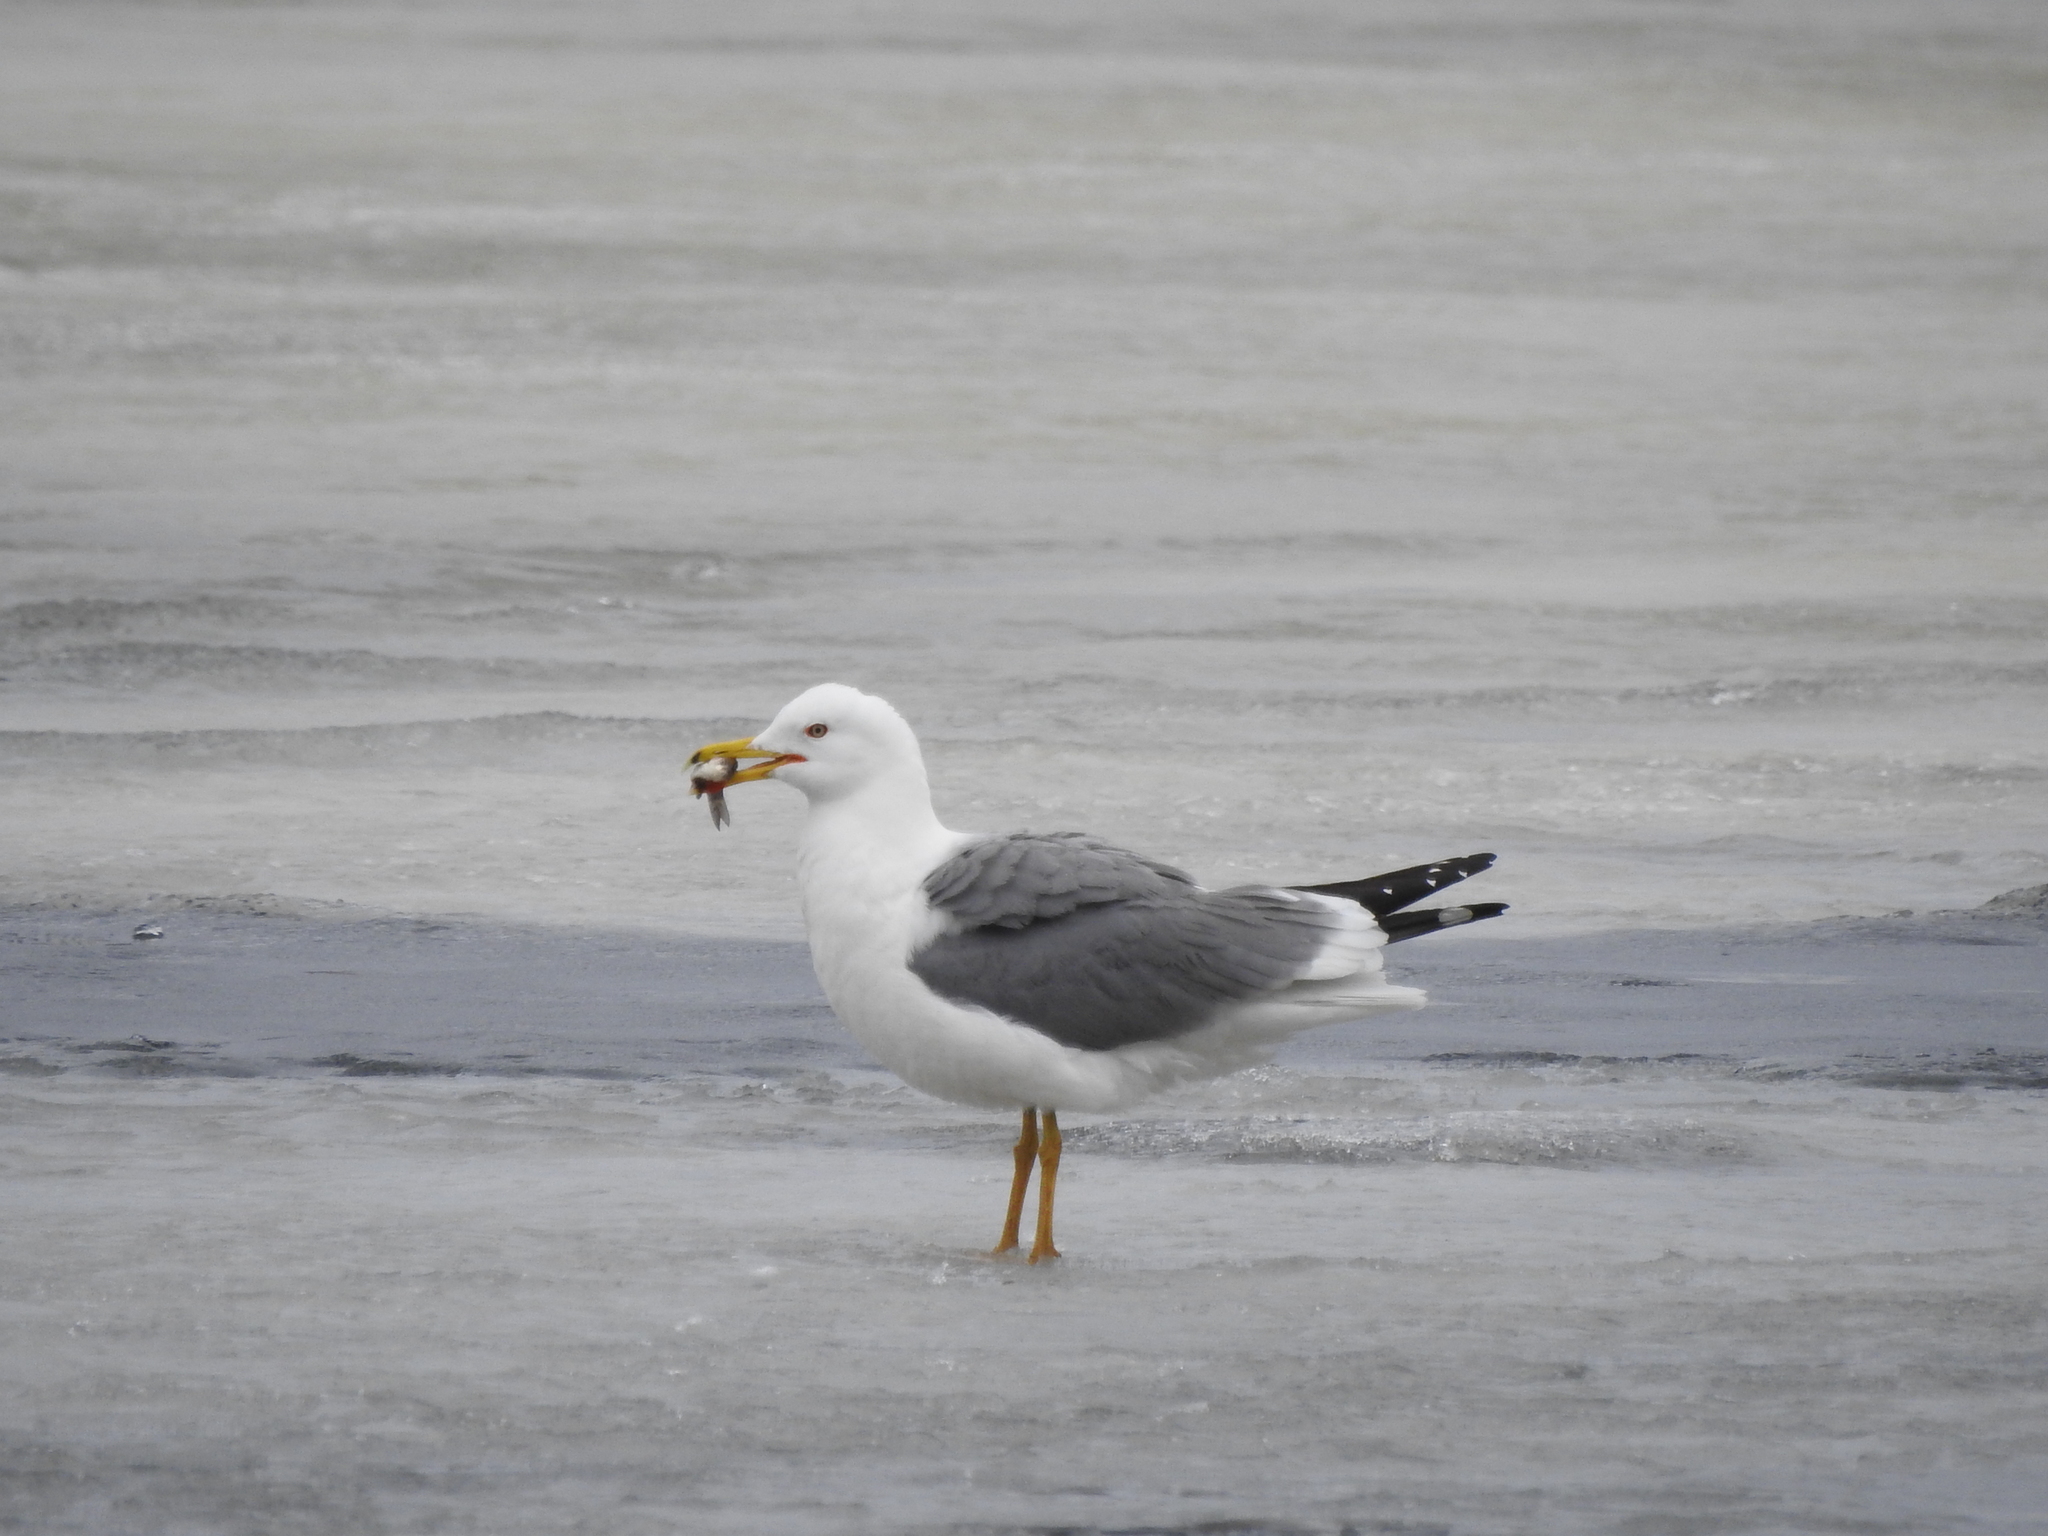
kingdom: Animalia
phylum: Chordata
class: Aves
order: Charadriiformes
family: Laridae
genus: Larus
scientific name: Larus fuscus
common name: Lesser black-backed gull
